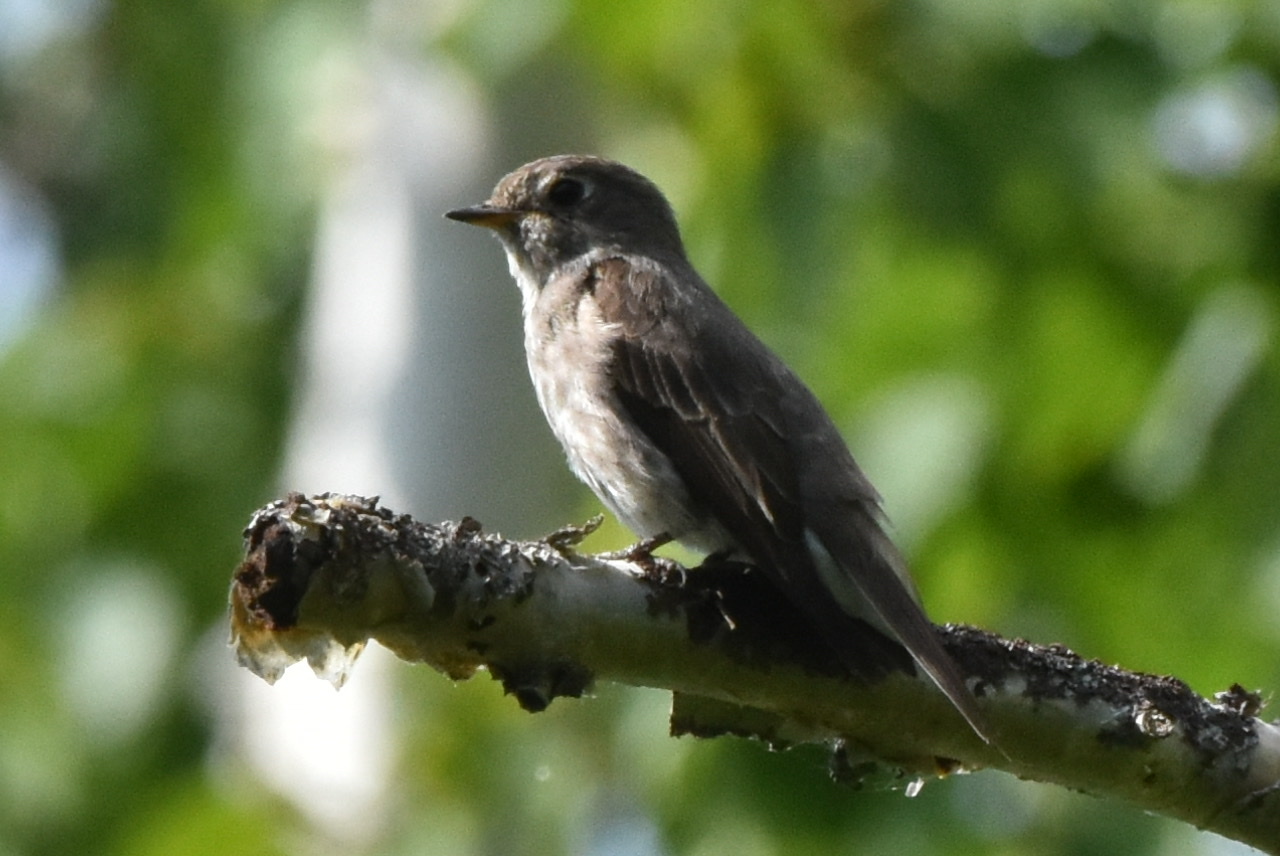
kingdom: Animalia
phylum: Chordata
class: Aves
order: Passeriformes
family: Muscicapidae
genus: Muscicapa
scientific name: Muscicapa sibirica
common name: Dark-sided flycatcher
